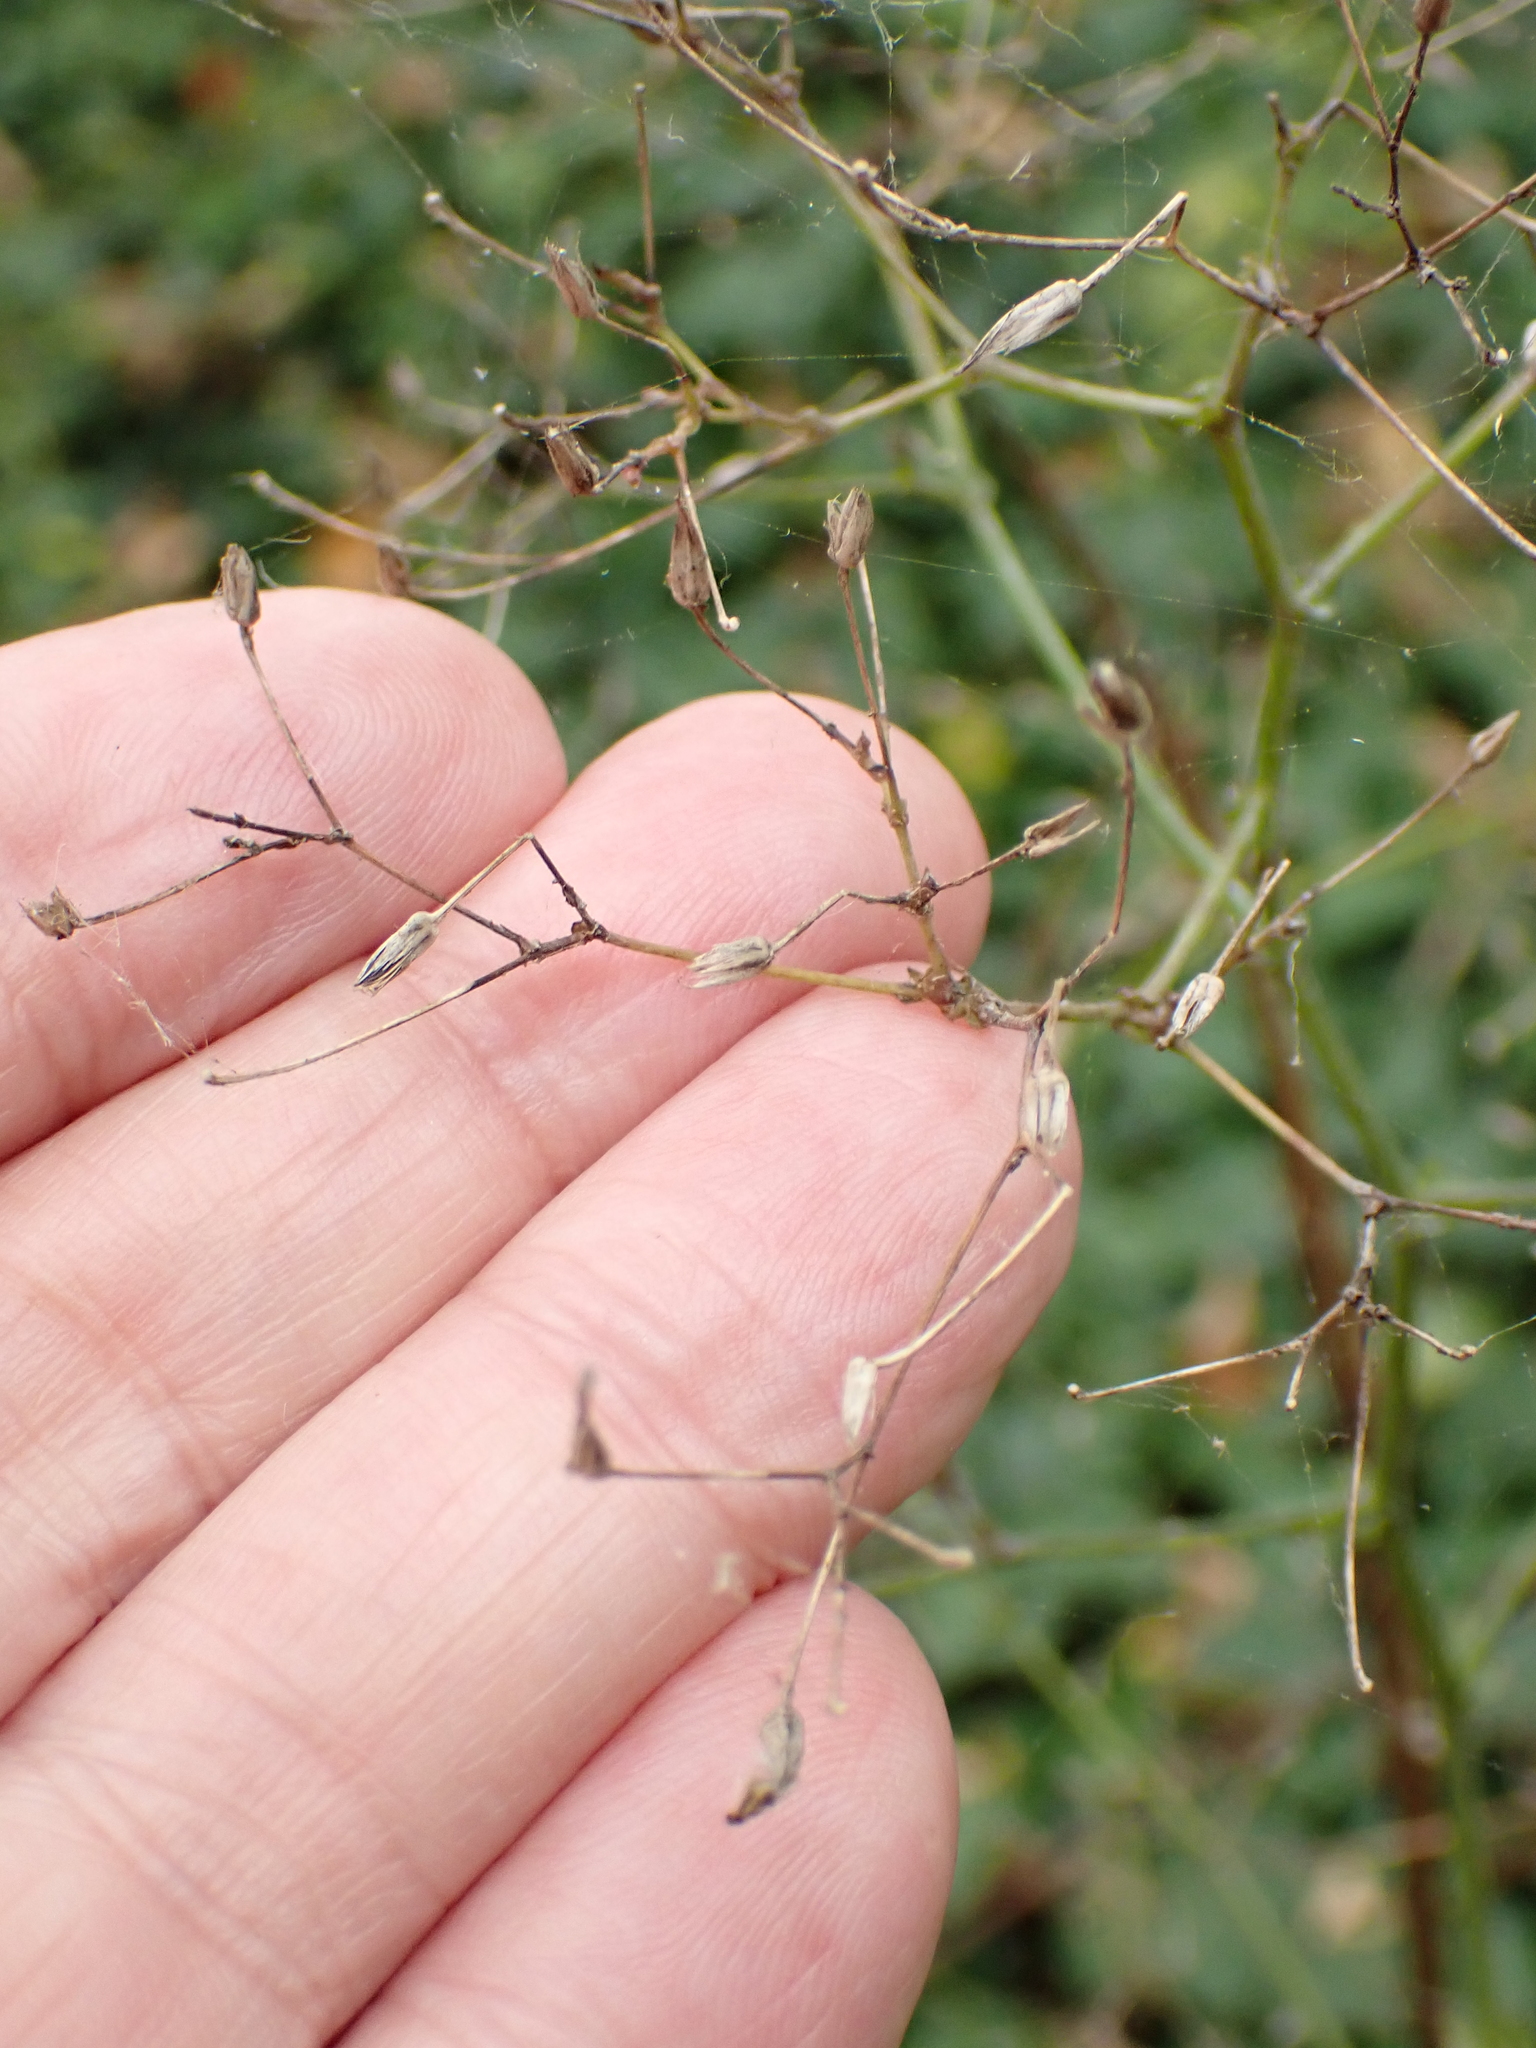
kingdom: Plantae
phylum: Tracheophyta
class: Magnoliopsida
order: Asterales
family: Asteraceae
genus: Mycelis
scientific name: Mycelis muralis
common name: Wall lettuce
